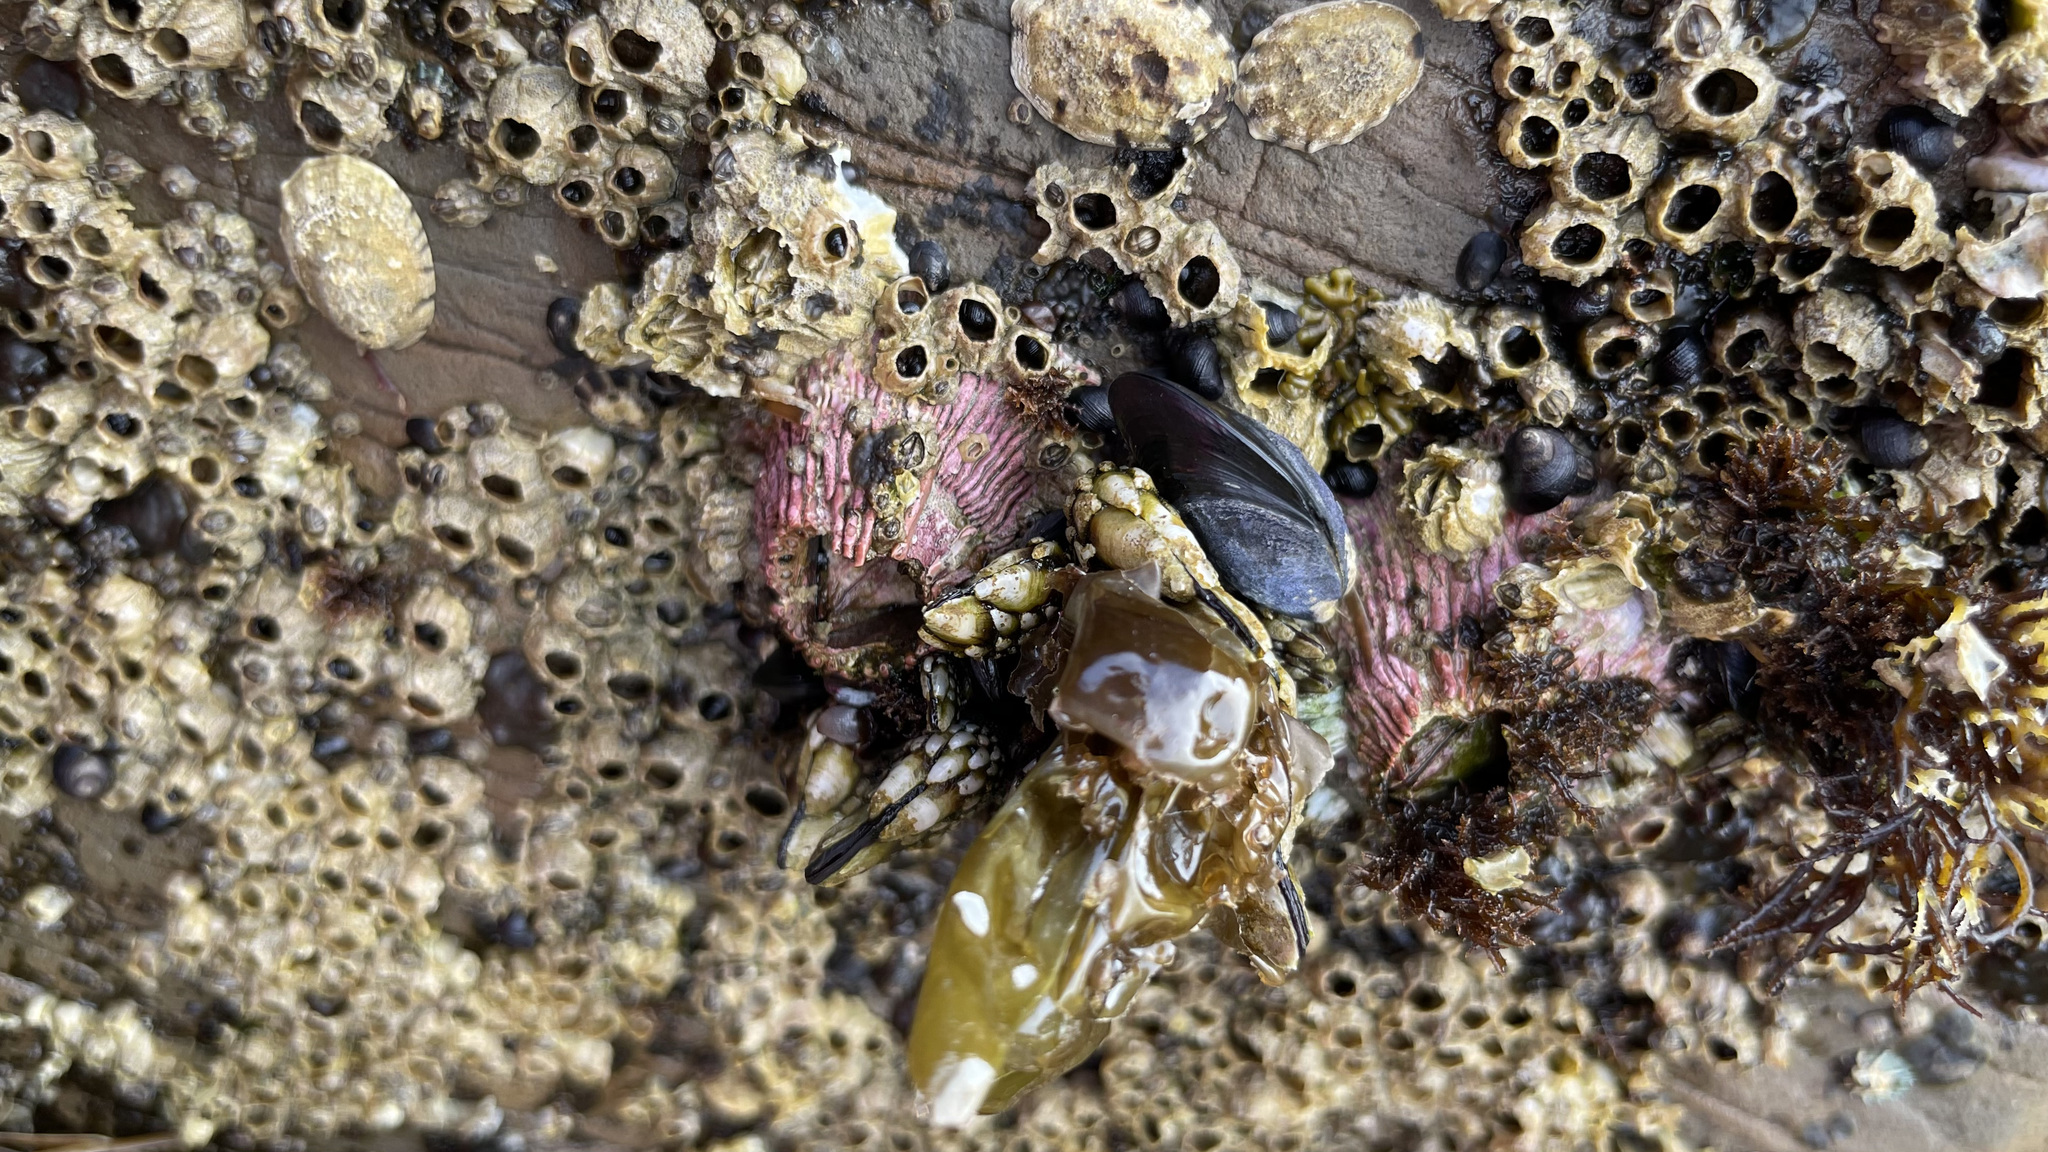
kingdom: Animalia
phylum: Arthropoda
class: Maxillopoda
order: Sessilia
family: Tetraclitidae
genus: Tetraclita
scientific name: Tetraclita rubescens
